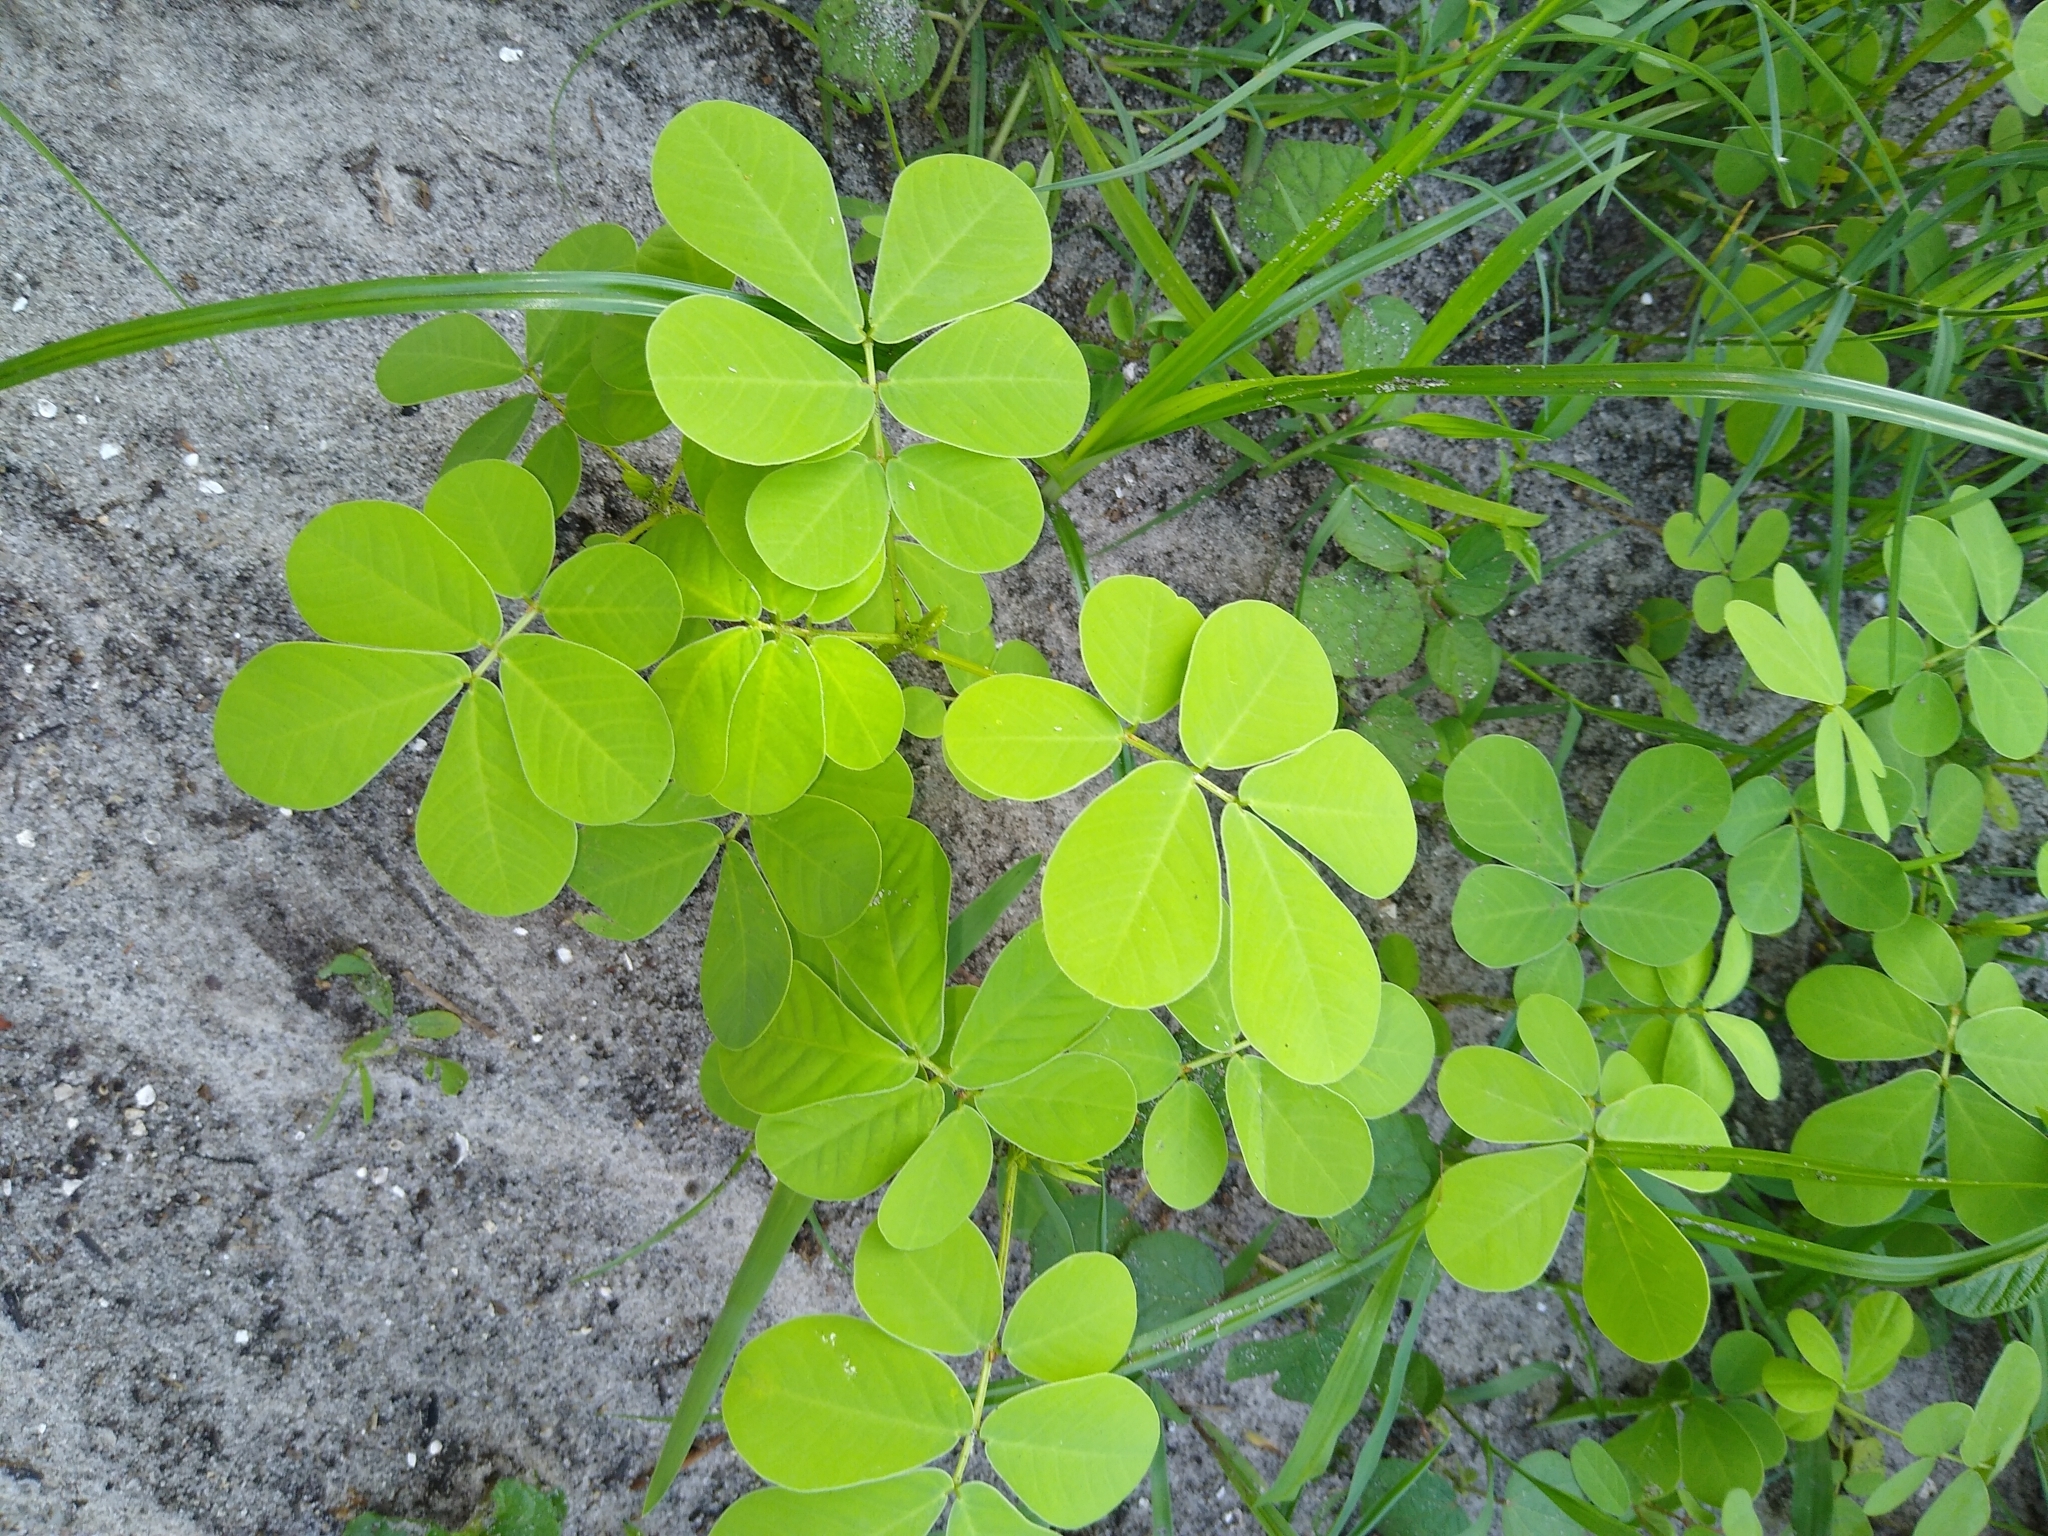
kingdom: Plantae
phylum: Tracheophyta
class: Magnoliopsida
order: Fabales
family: Fabaceae
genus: Senna
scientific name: Senna obtusifolia
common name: Java-bean
